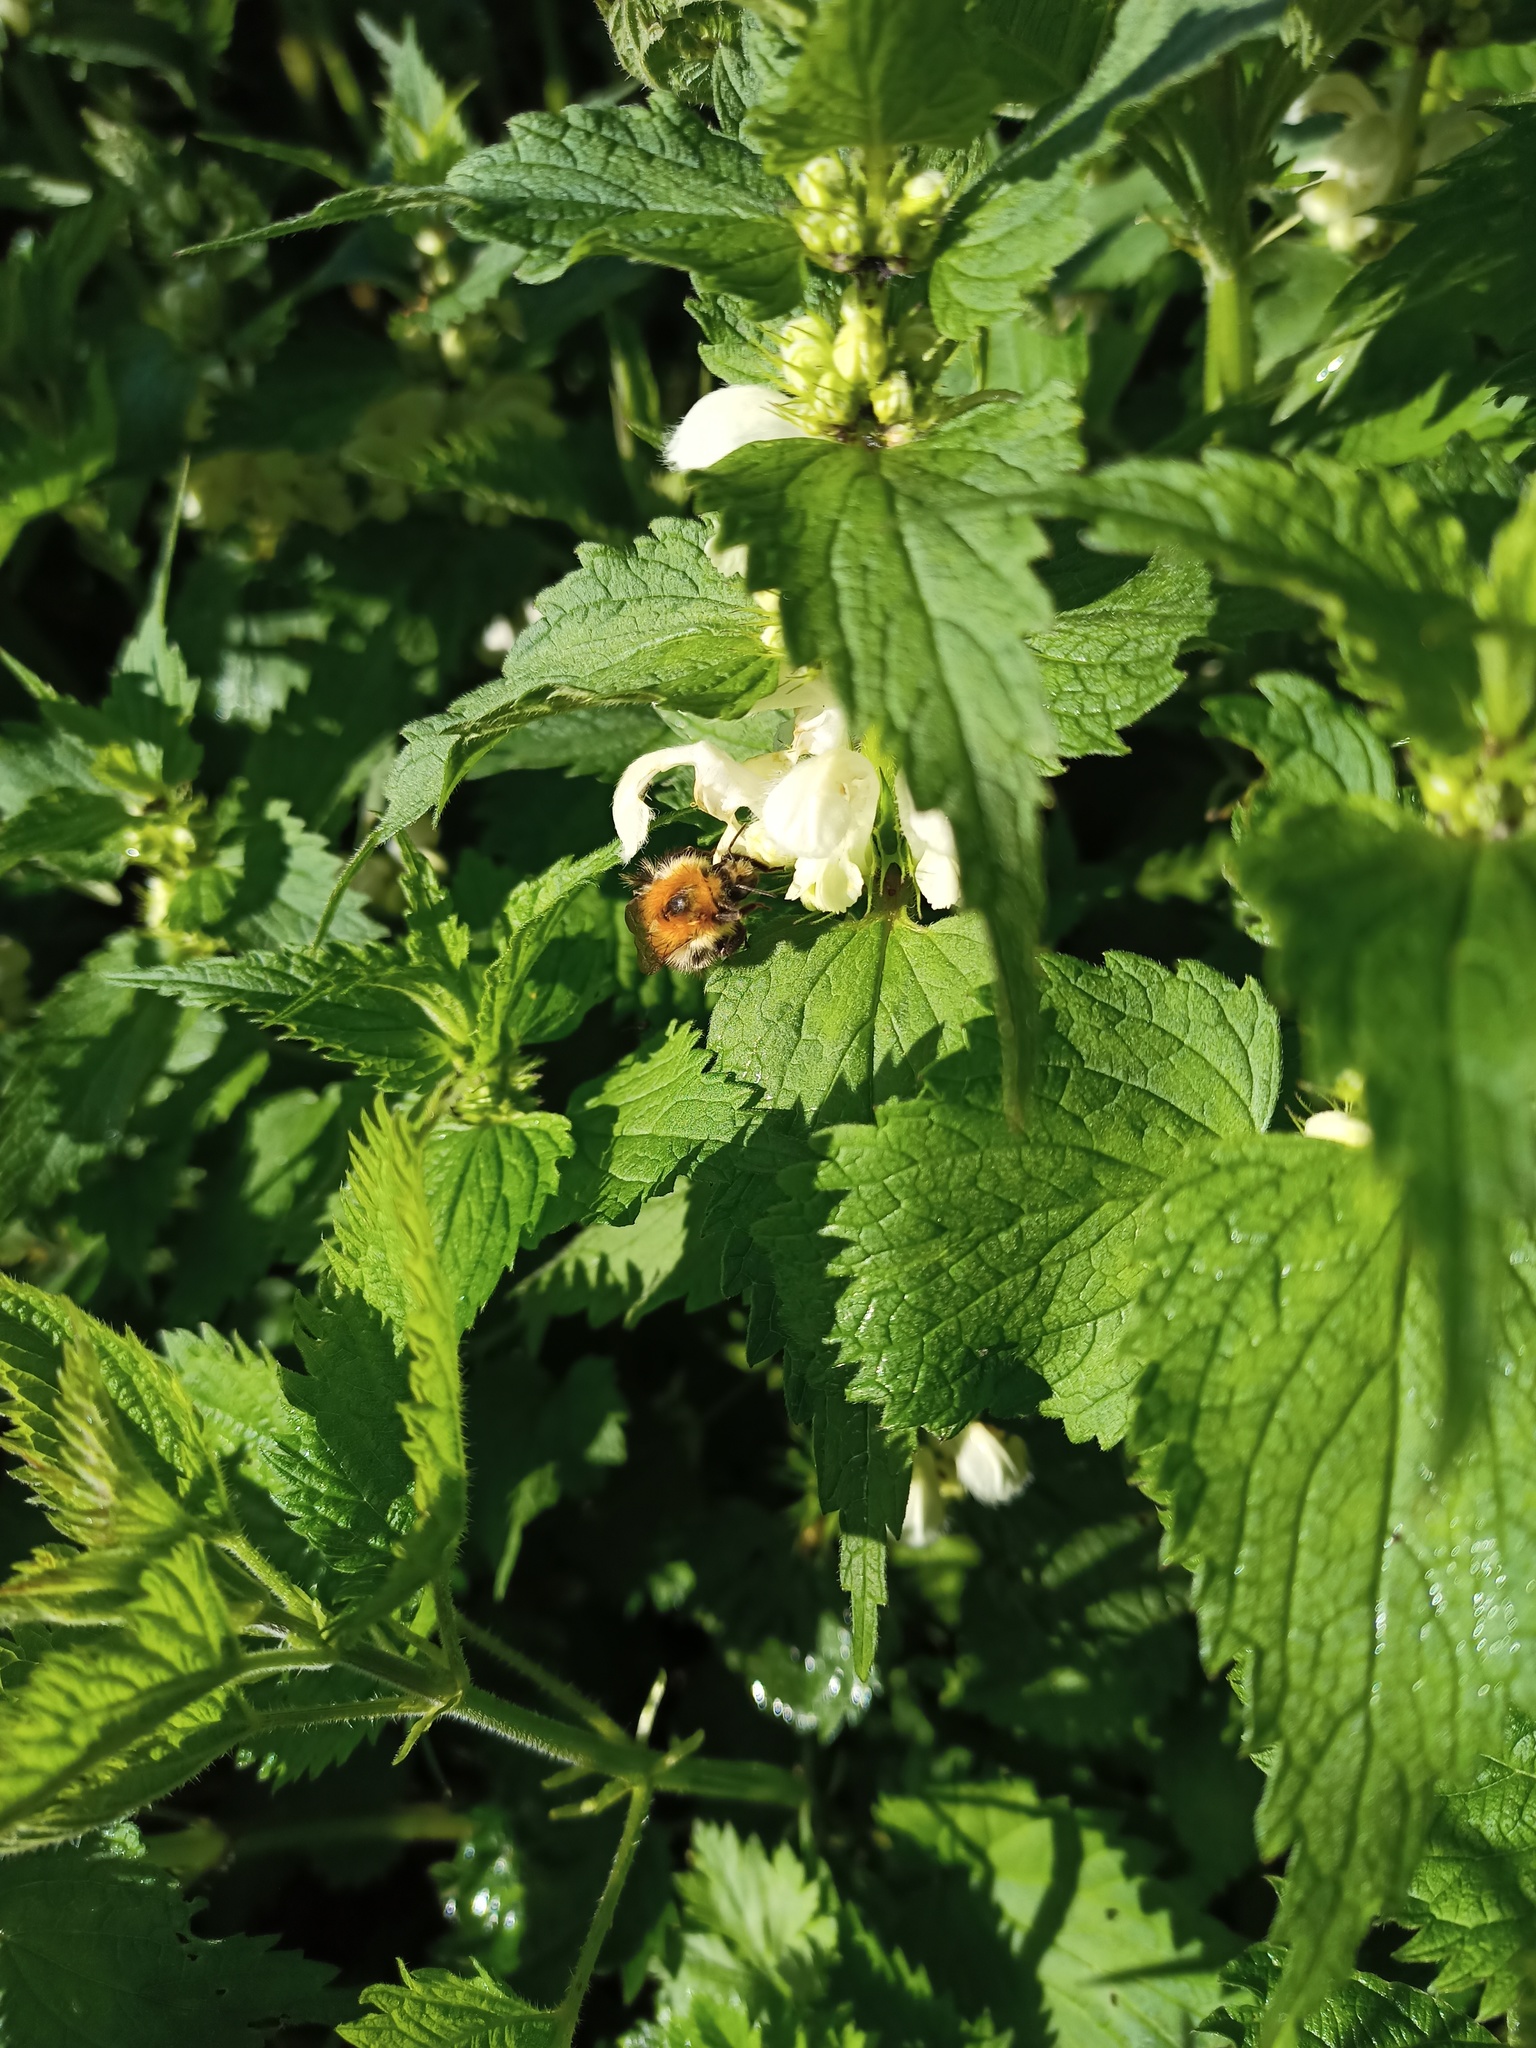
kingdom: Plantae
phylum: Tracheophyta
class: Magnoliopsida
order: Lamiales
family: Lamiaceae
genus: Lamium
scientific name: Lamium album
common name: White dead-nettle
